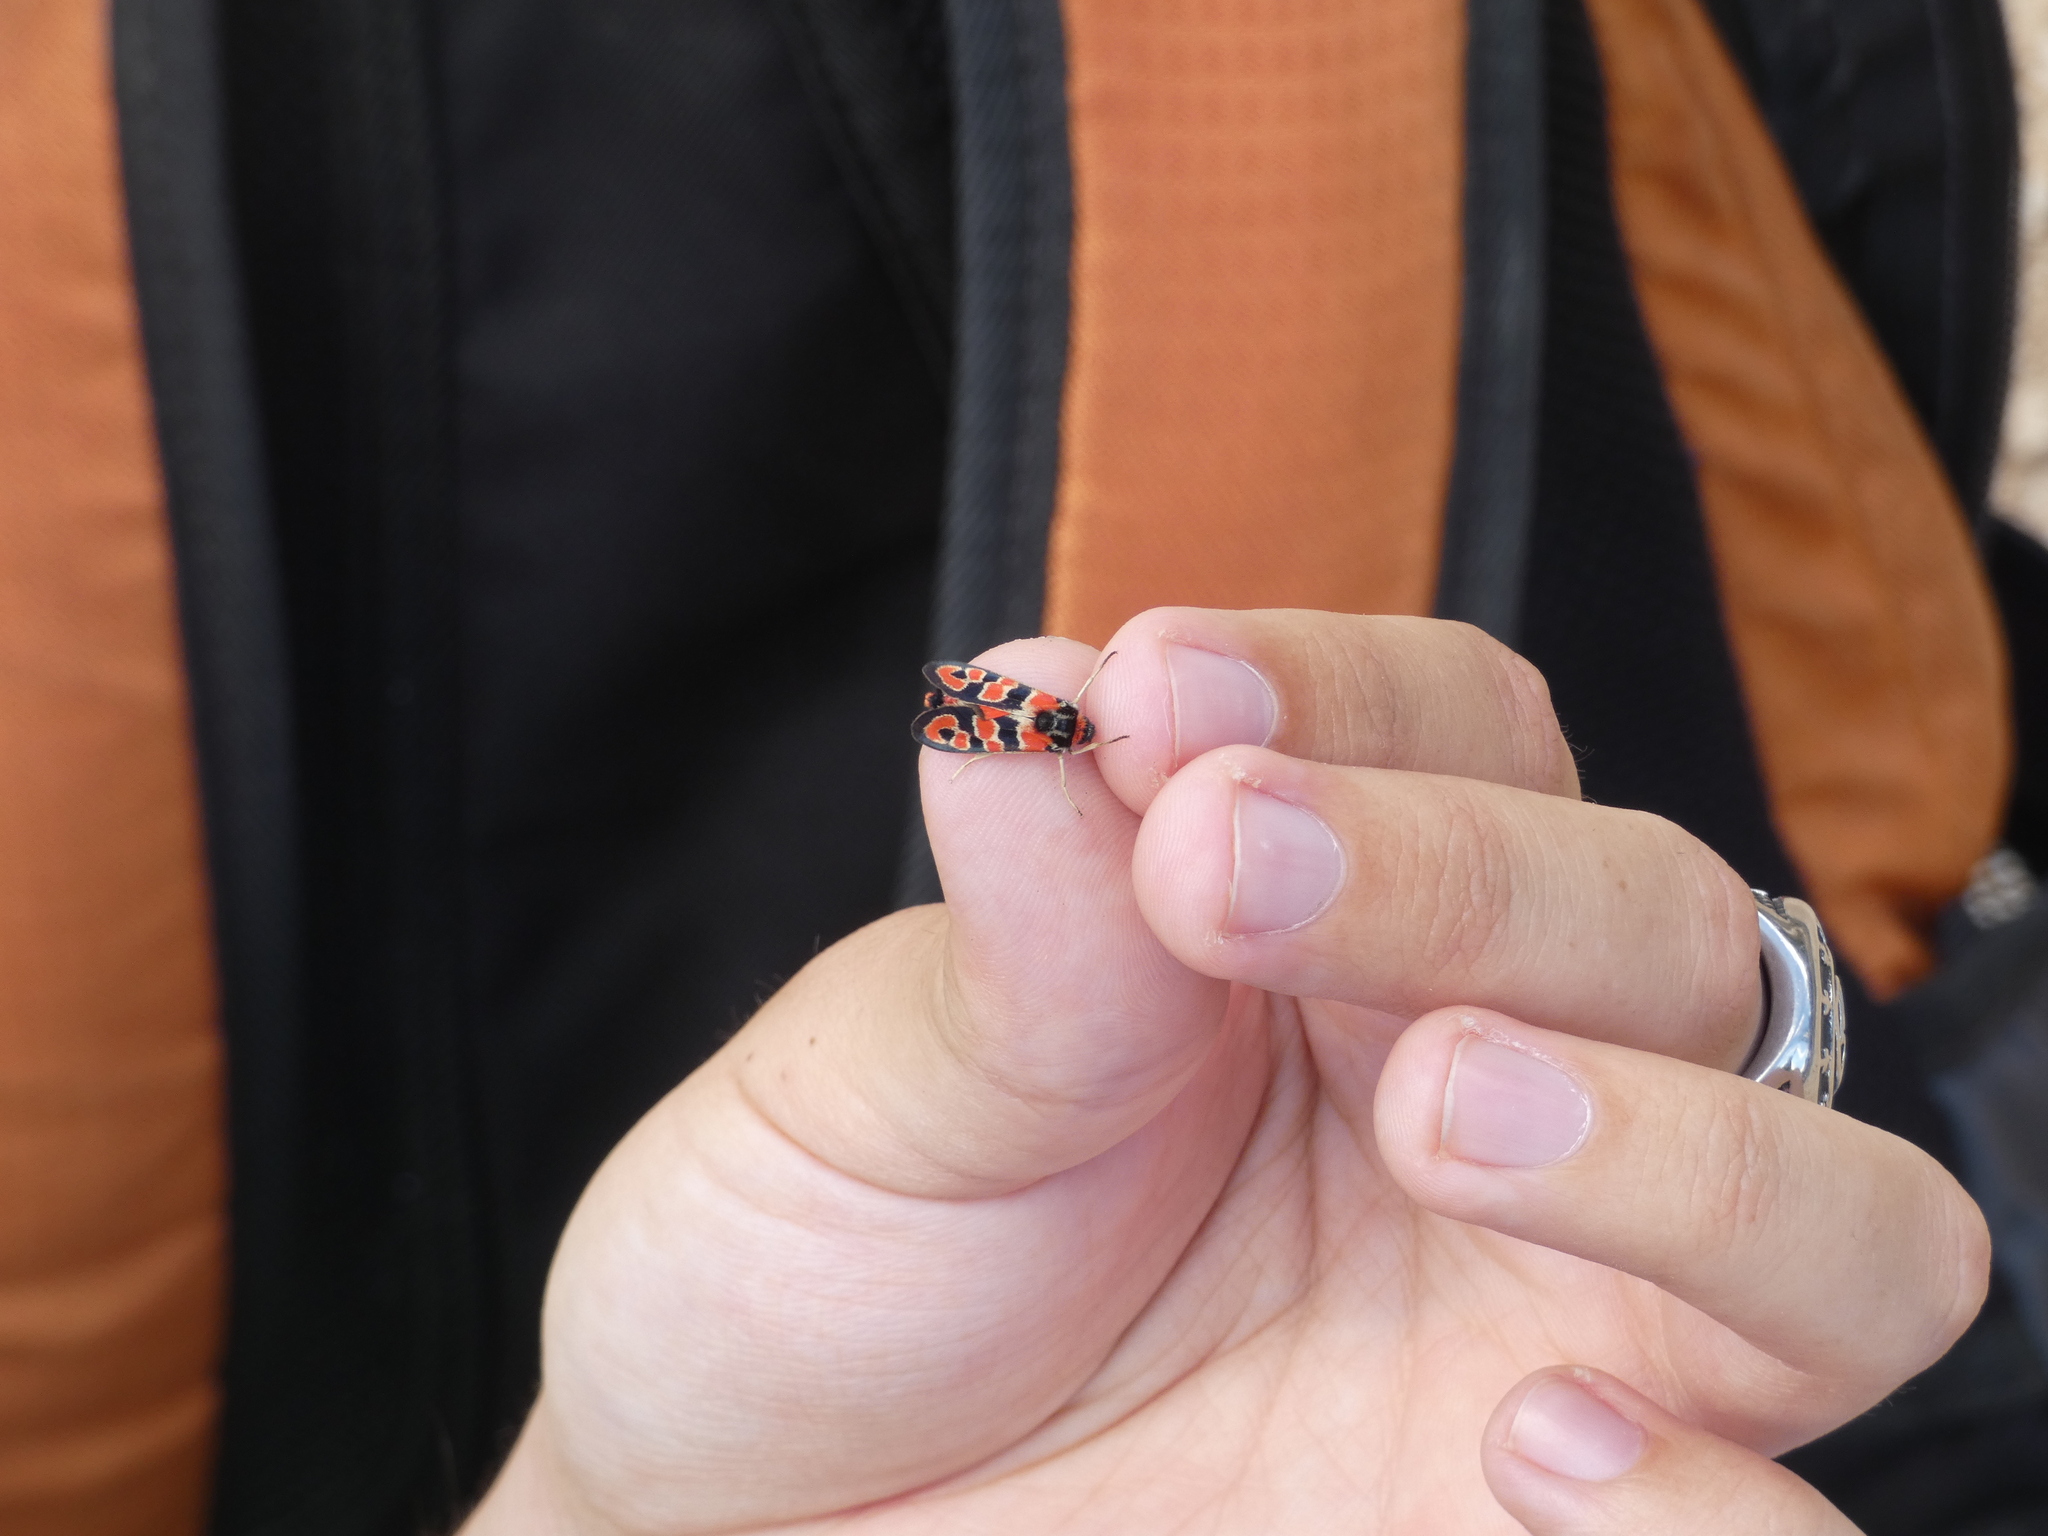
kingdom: Animalia
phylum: Arthropoda
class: Insecta
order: Lepidoptera
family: Zygaenidae
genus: Zygaena
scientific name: Zygaena fausta
